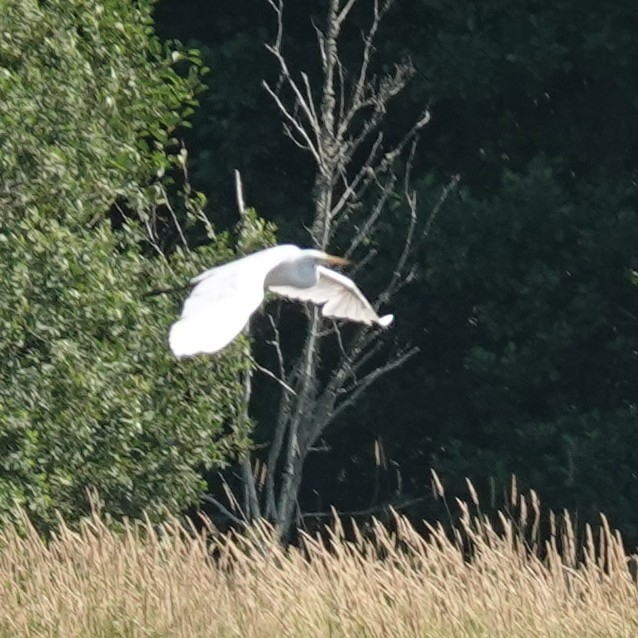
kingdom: Animalia
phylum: Chordata
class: Aves
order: Pelecaniformes
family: Ardeidae
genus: Ardea
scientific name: Ardea alba
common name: Great egret
